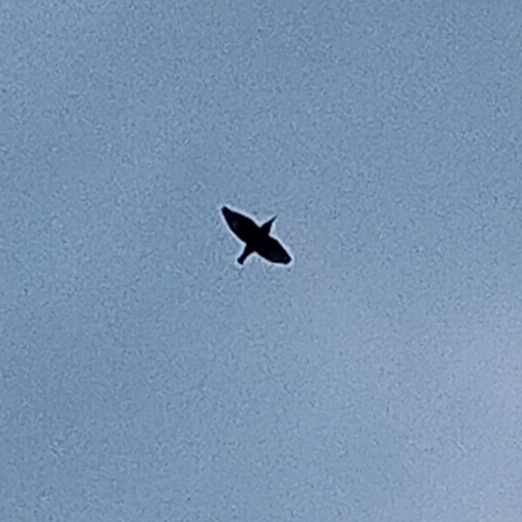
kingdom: Animalia
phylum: Chordata
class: Aves
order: Passeriformes
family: Sturnidae
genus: Sturnus
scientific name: Sturnus vulgaris
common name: Common starling
